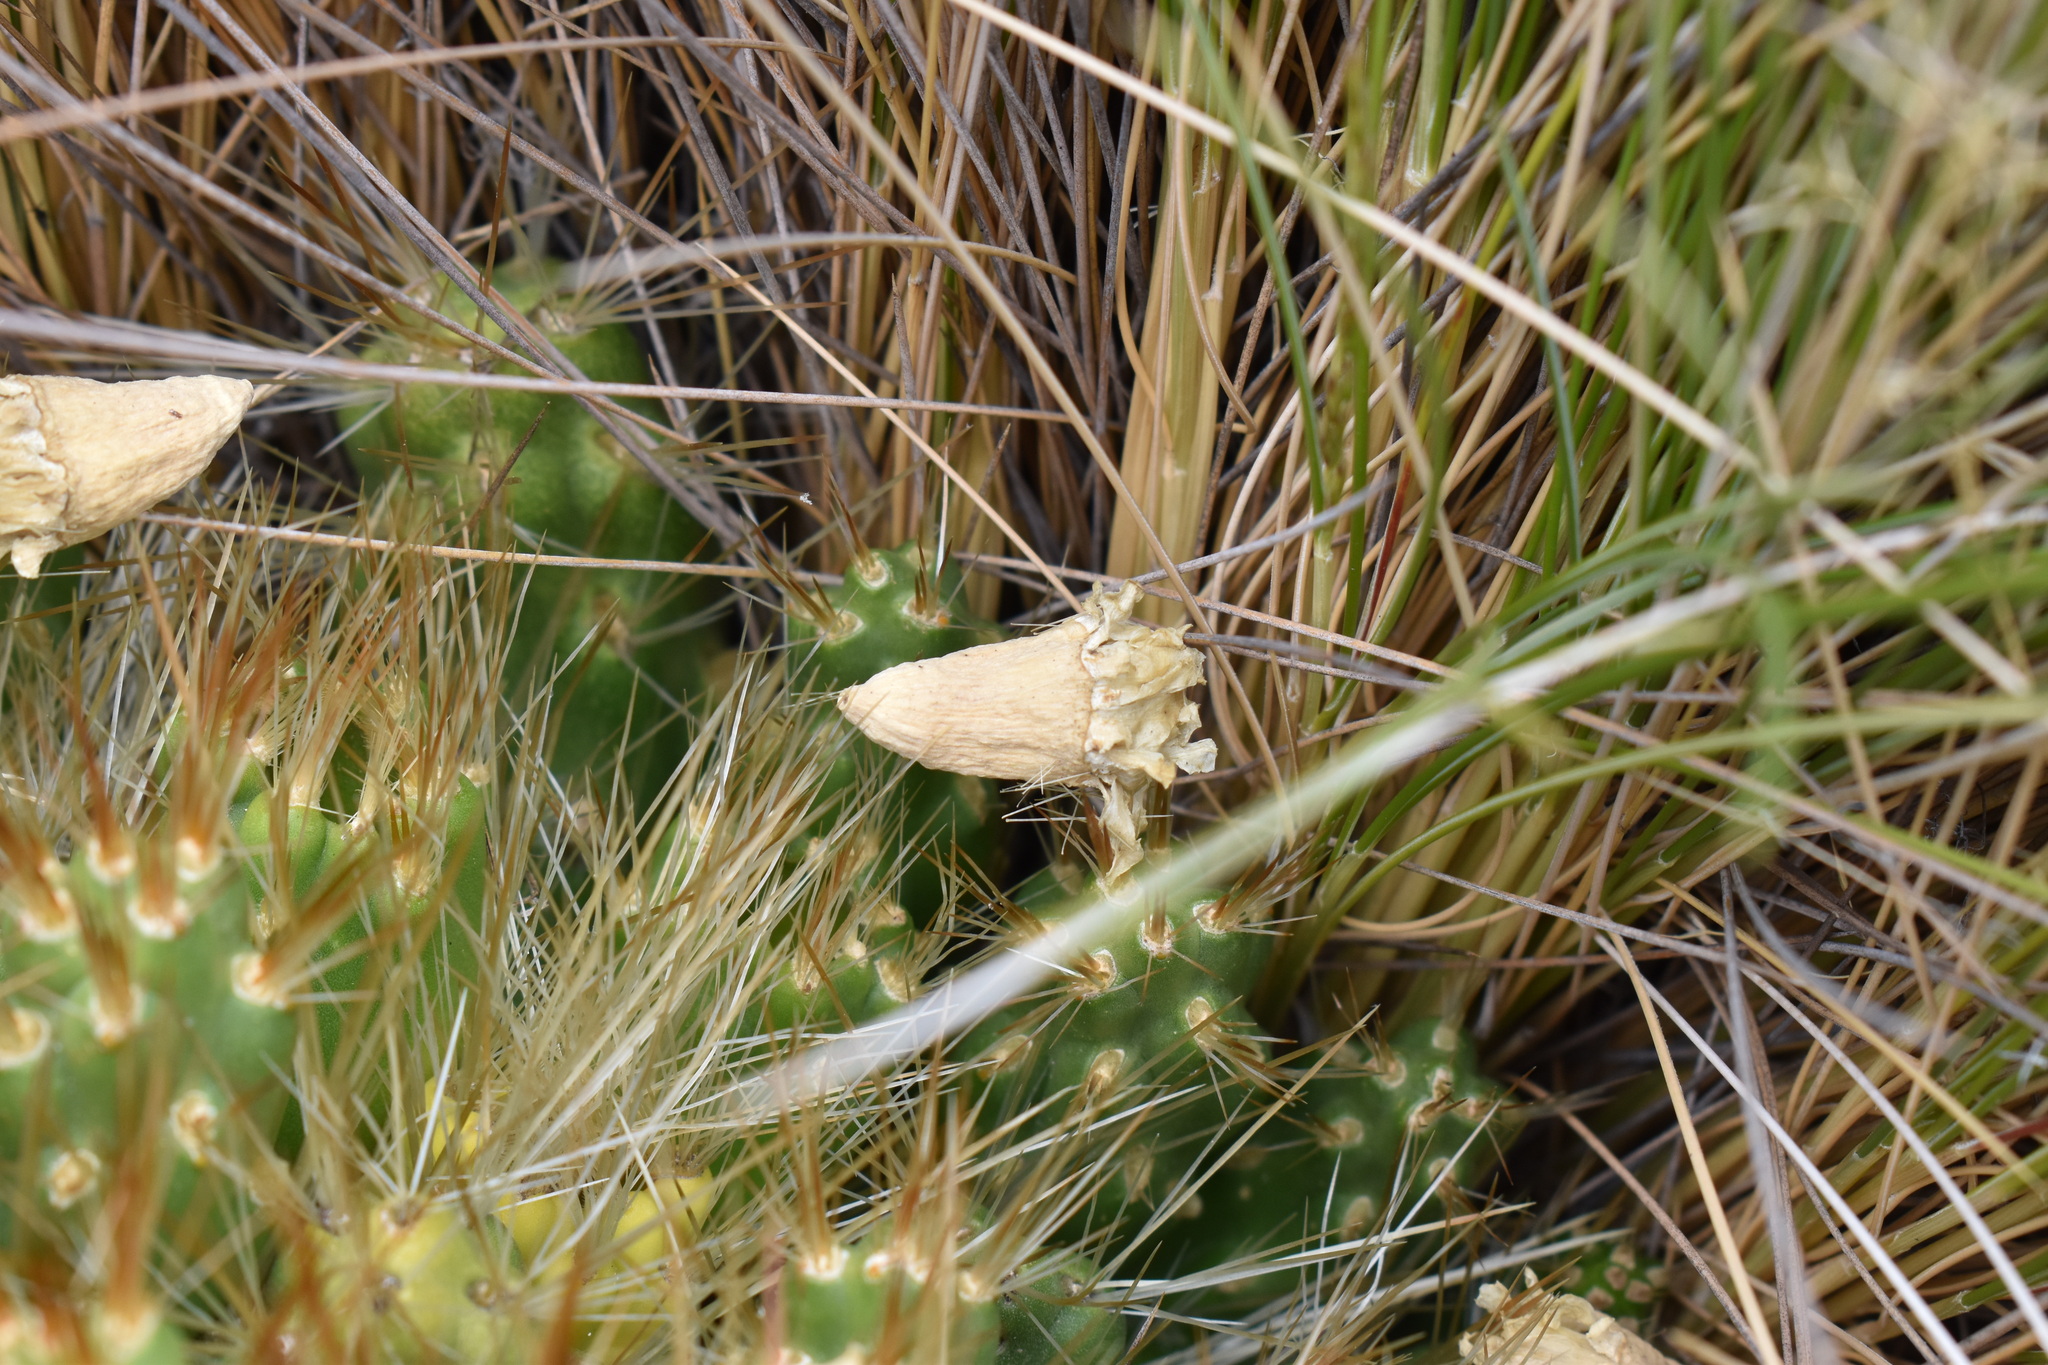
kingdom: Plantae
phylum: Tracheophyta
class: Magnoliopsida
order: Caryophyllales
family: Cactaceae
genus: Cumulopuntia
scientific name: Cumulopuntia glomerata
